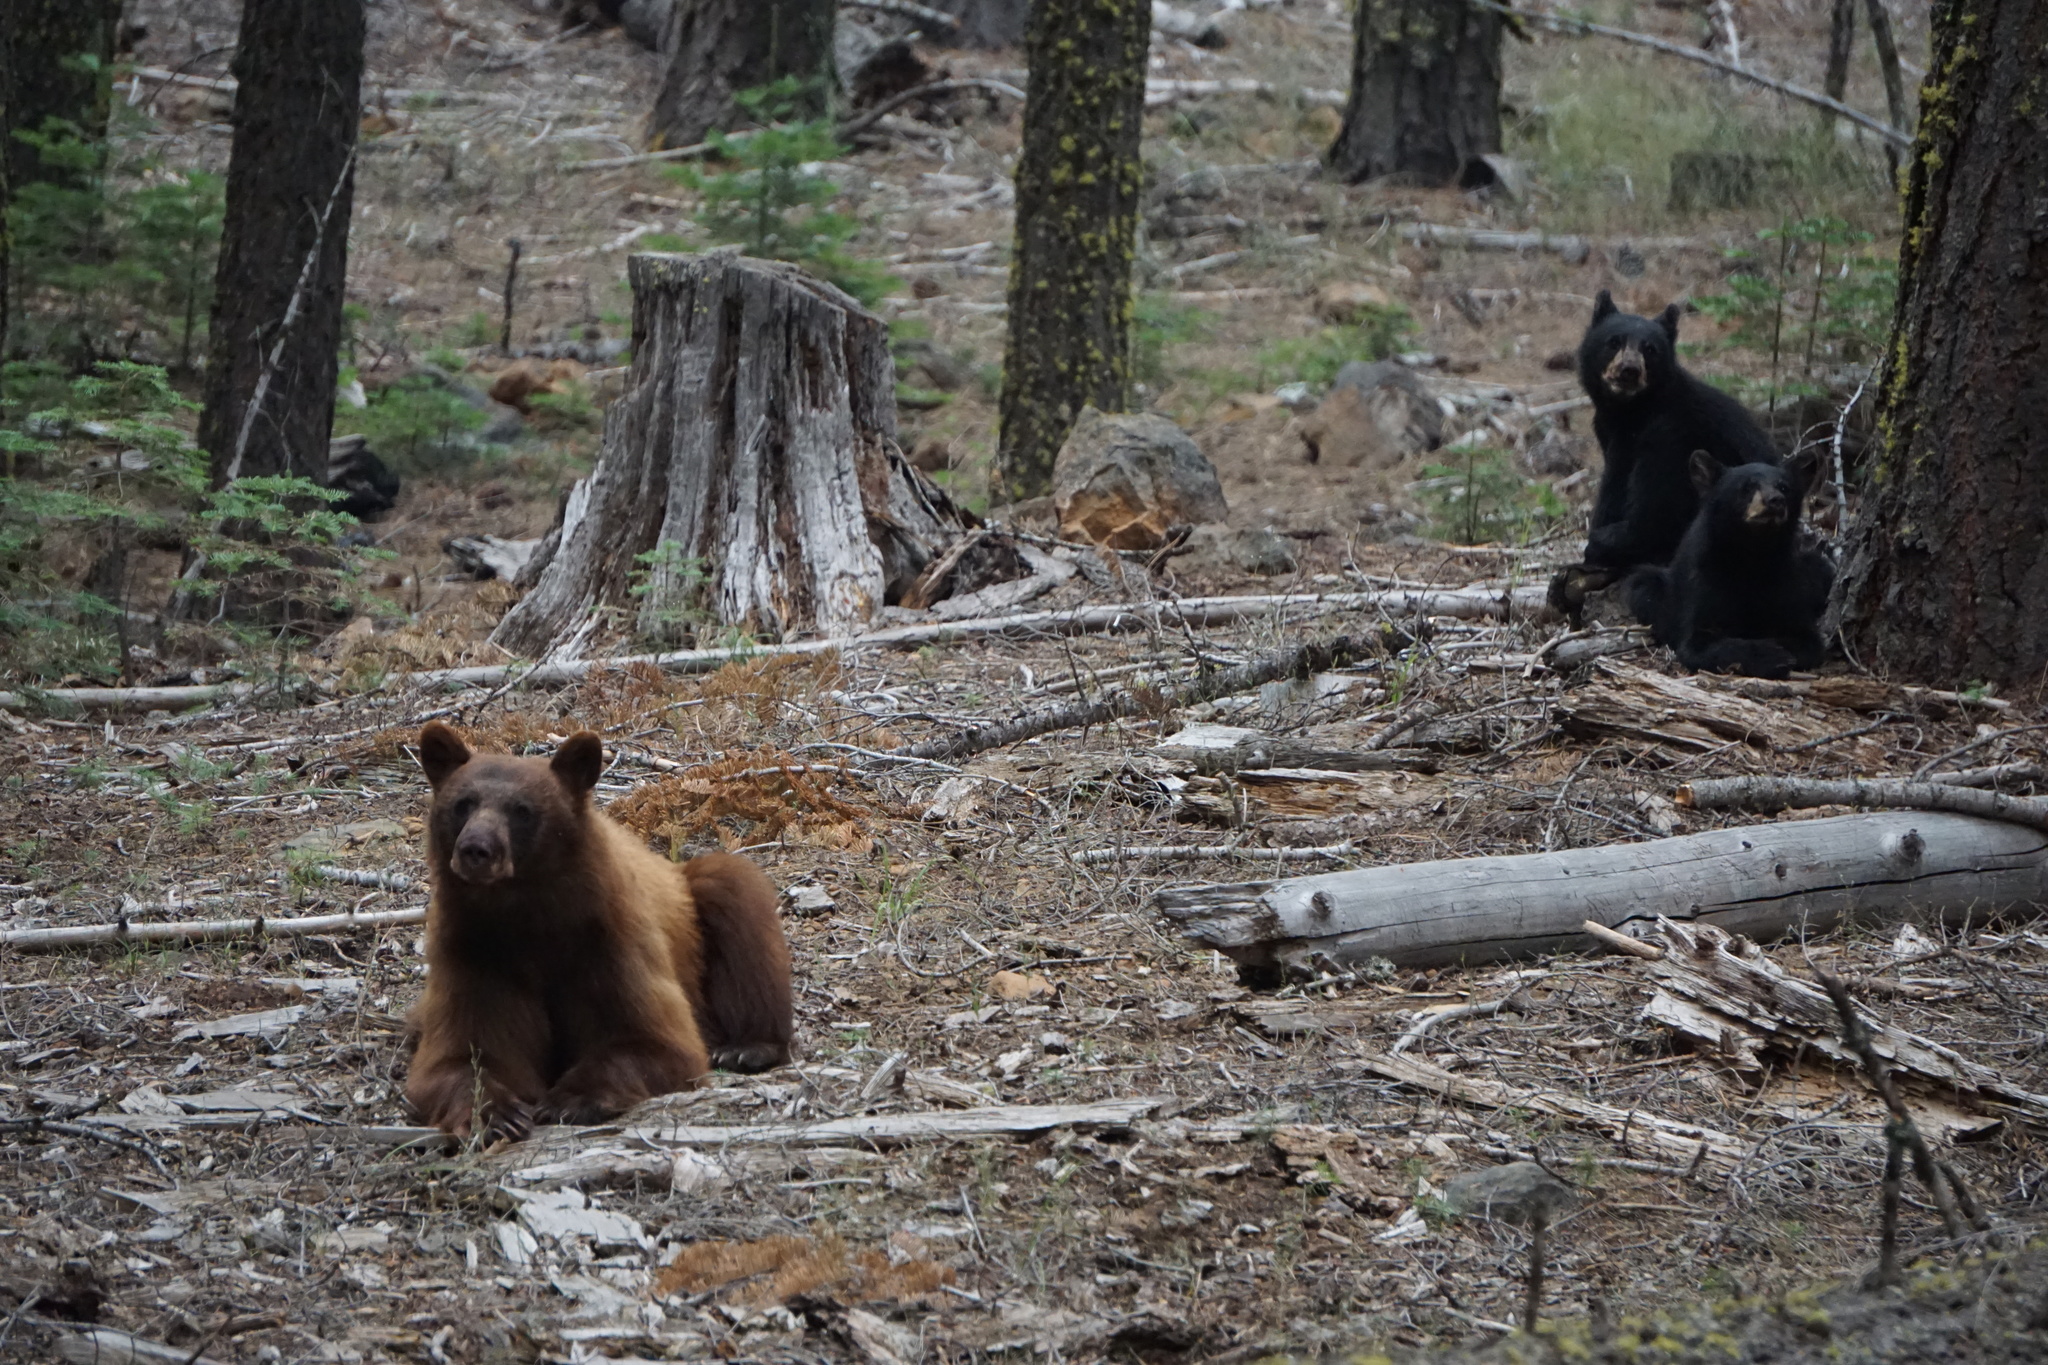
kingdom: Animalia
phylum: Chordata
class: Mammalia
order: Carnivora
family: Ursidae
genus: Ursus
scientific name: Ursus americanus
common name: American black bear
